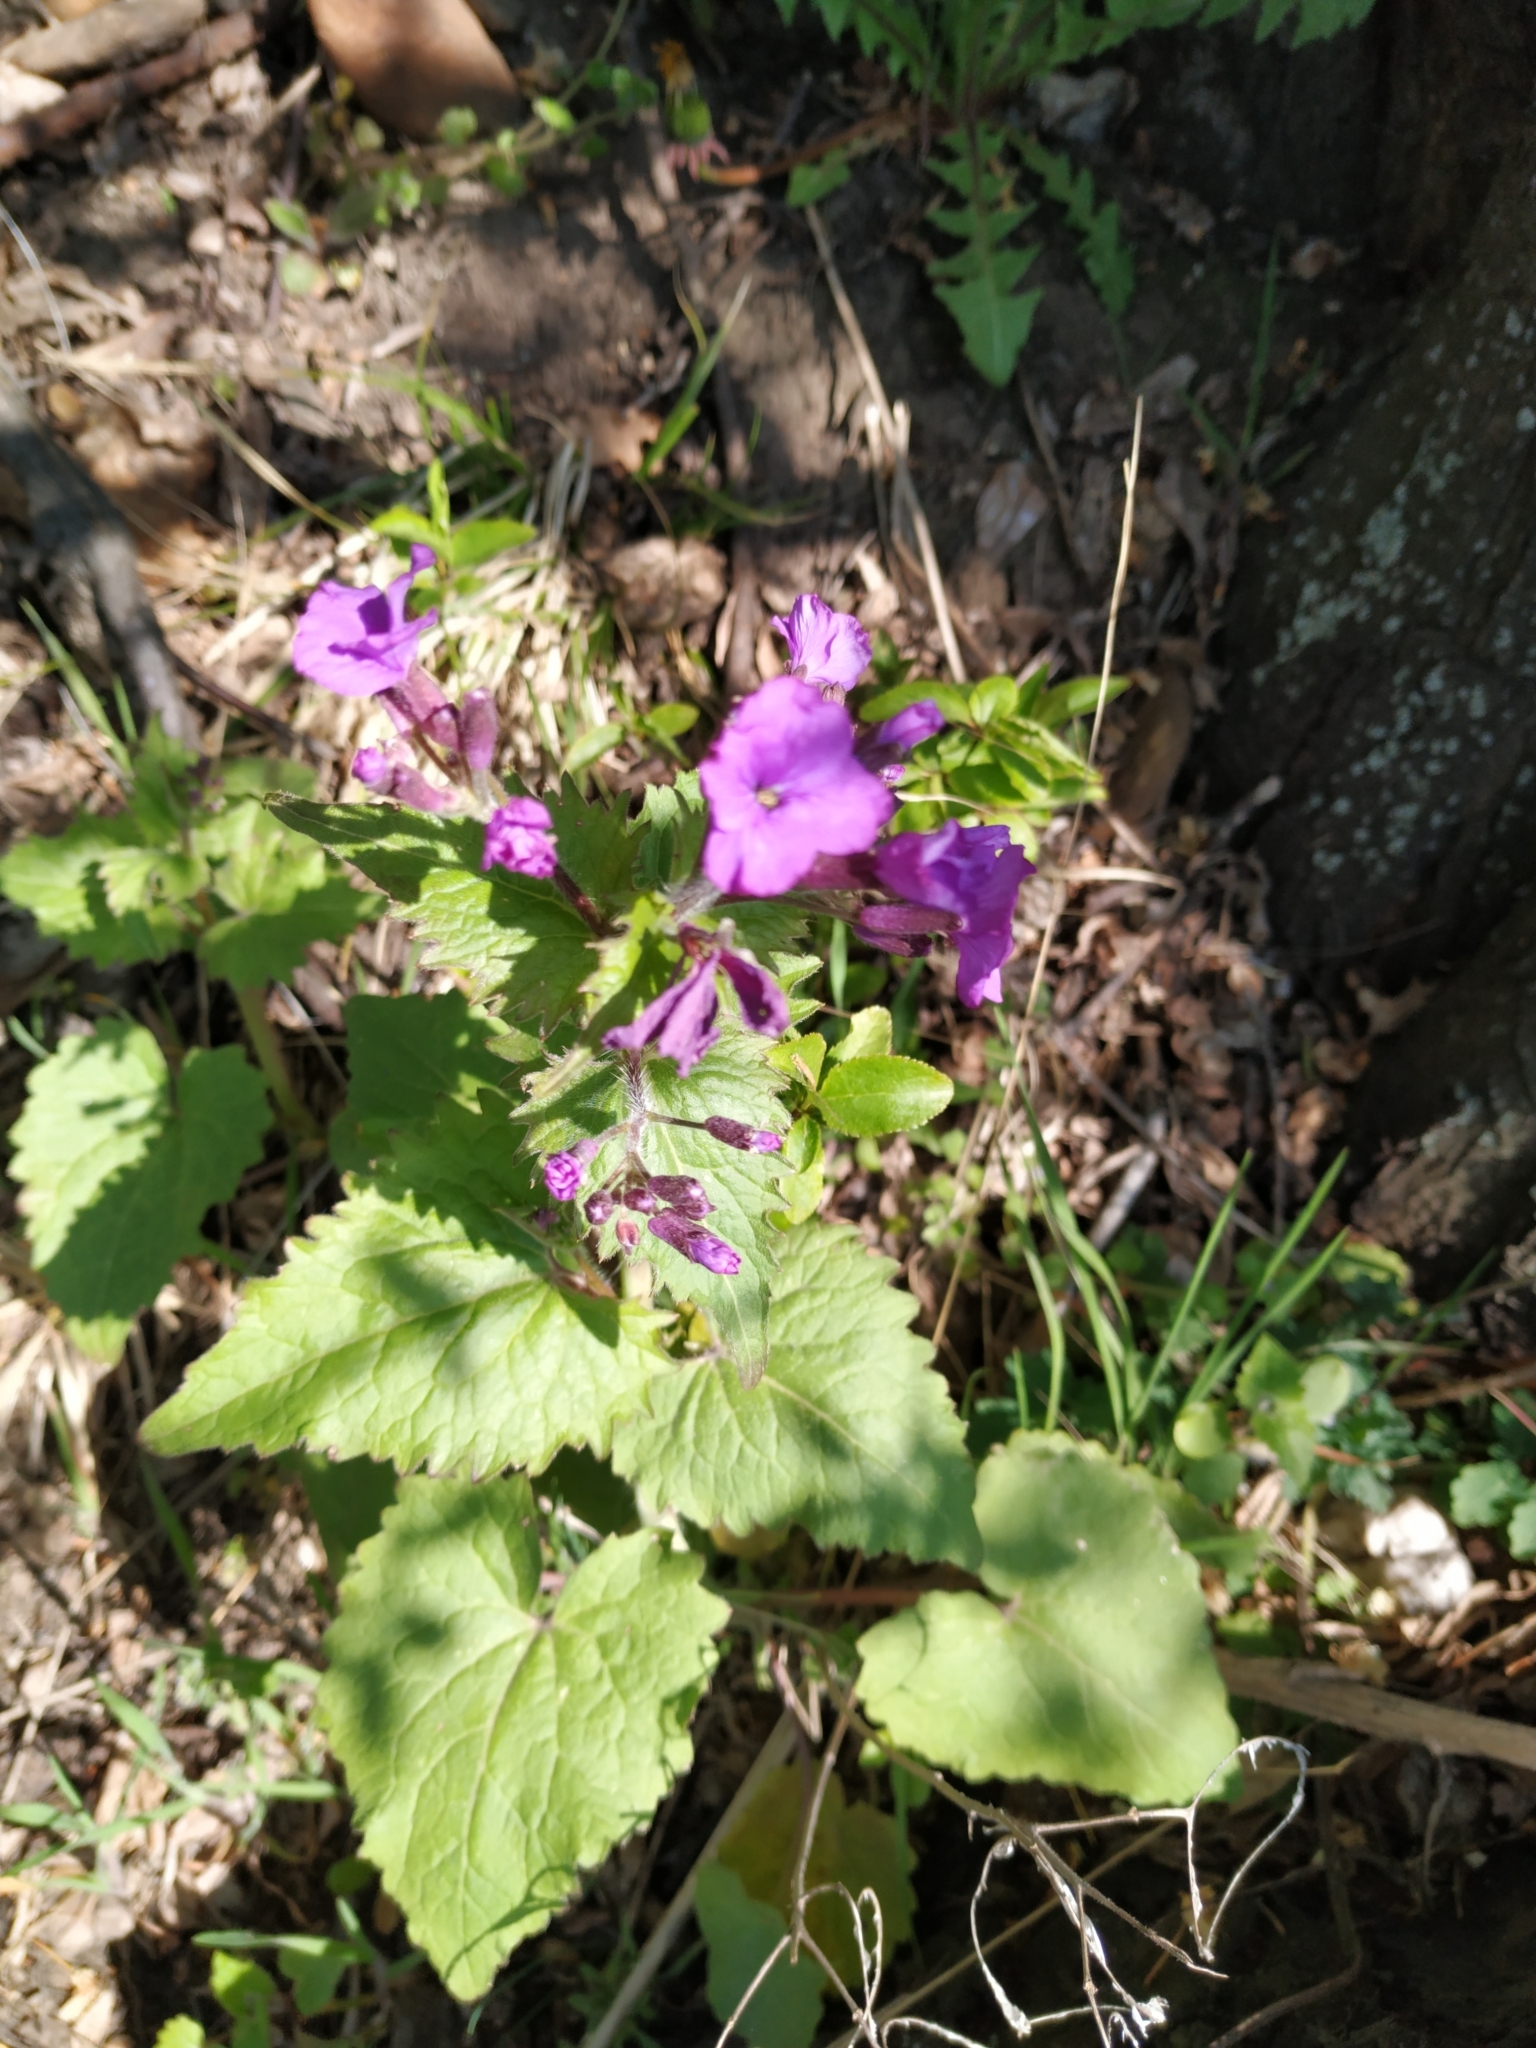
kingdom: Plantae
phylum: Tracheophyta
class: Magnoliopsida
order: Brassicales
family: Brassicaceae
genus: Lunaria
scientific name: Lunaria annua
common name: Honesty
